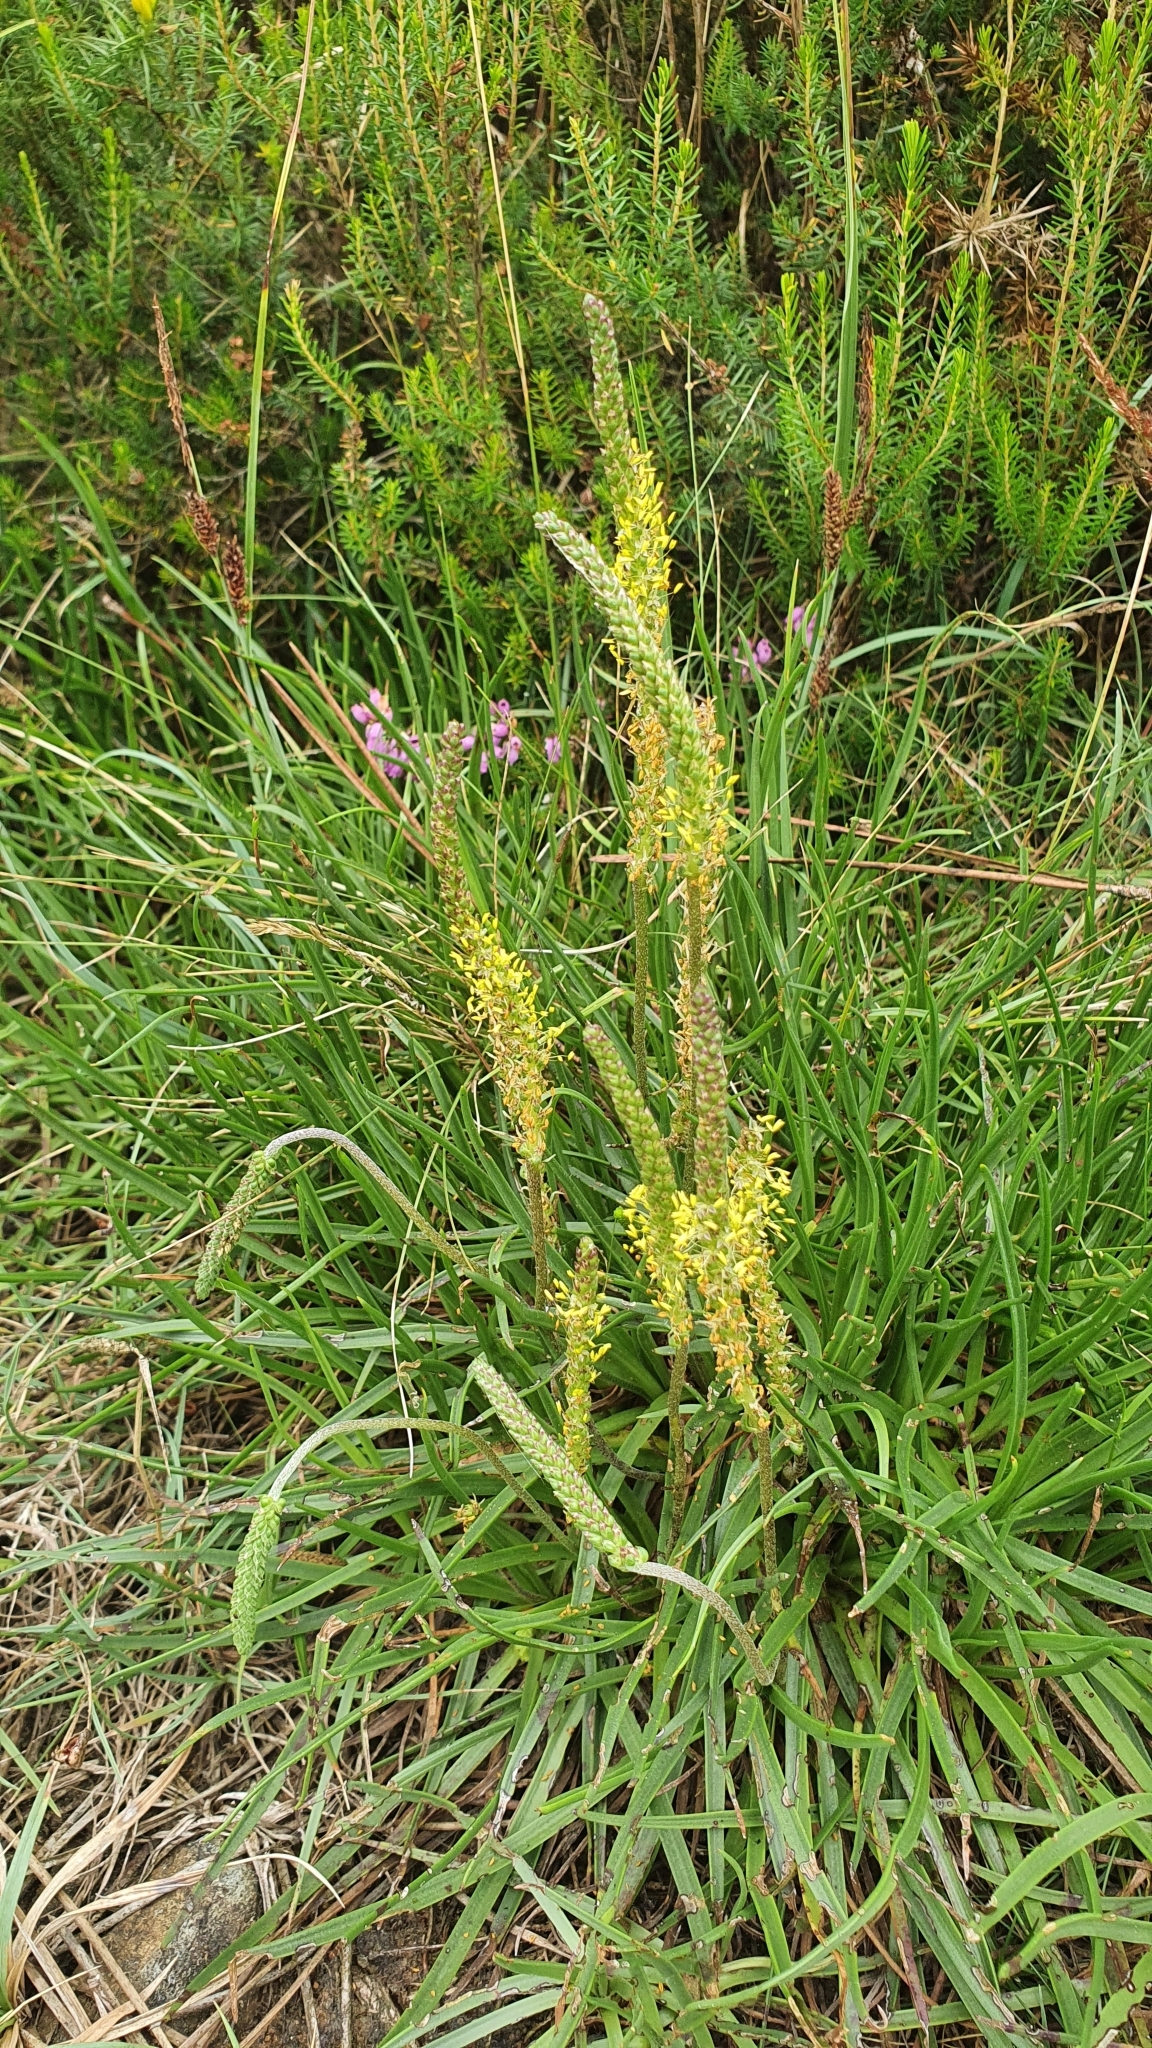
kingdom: Plantae
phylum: Tracheophyta
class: Magnoliopsida
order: Lamiales
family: Plantaginaceae
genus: Plantago
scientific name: Plantago
